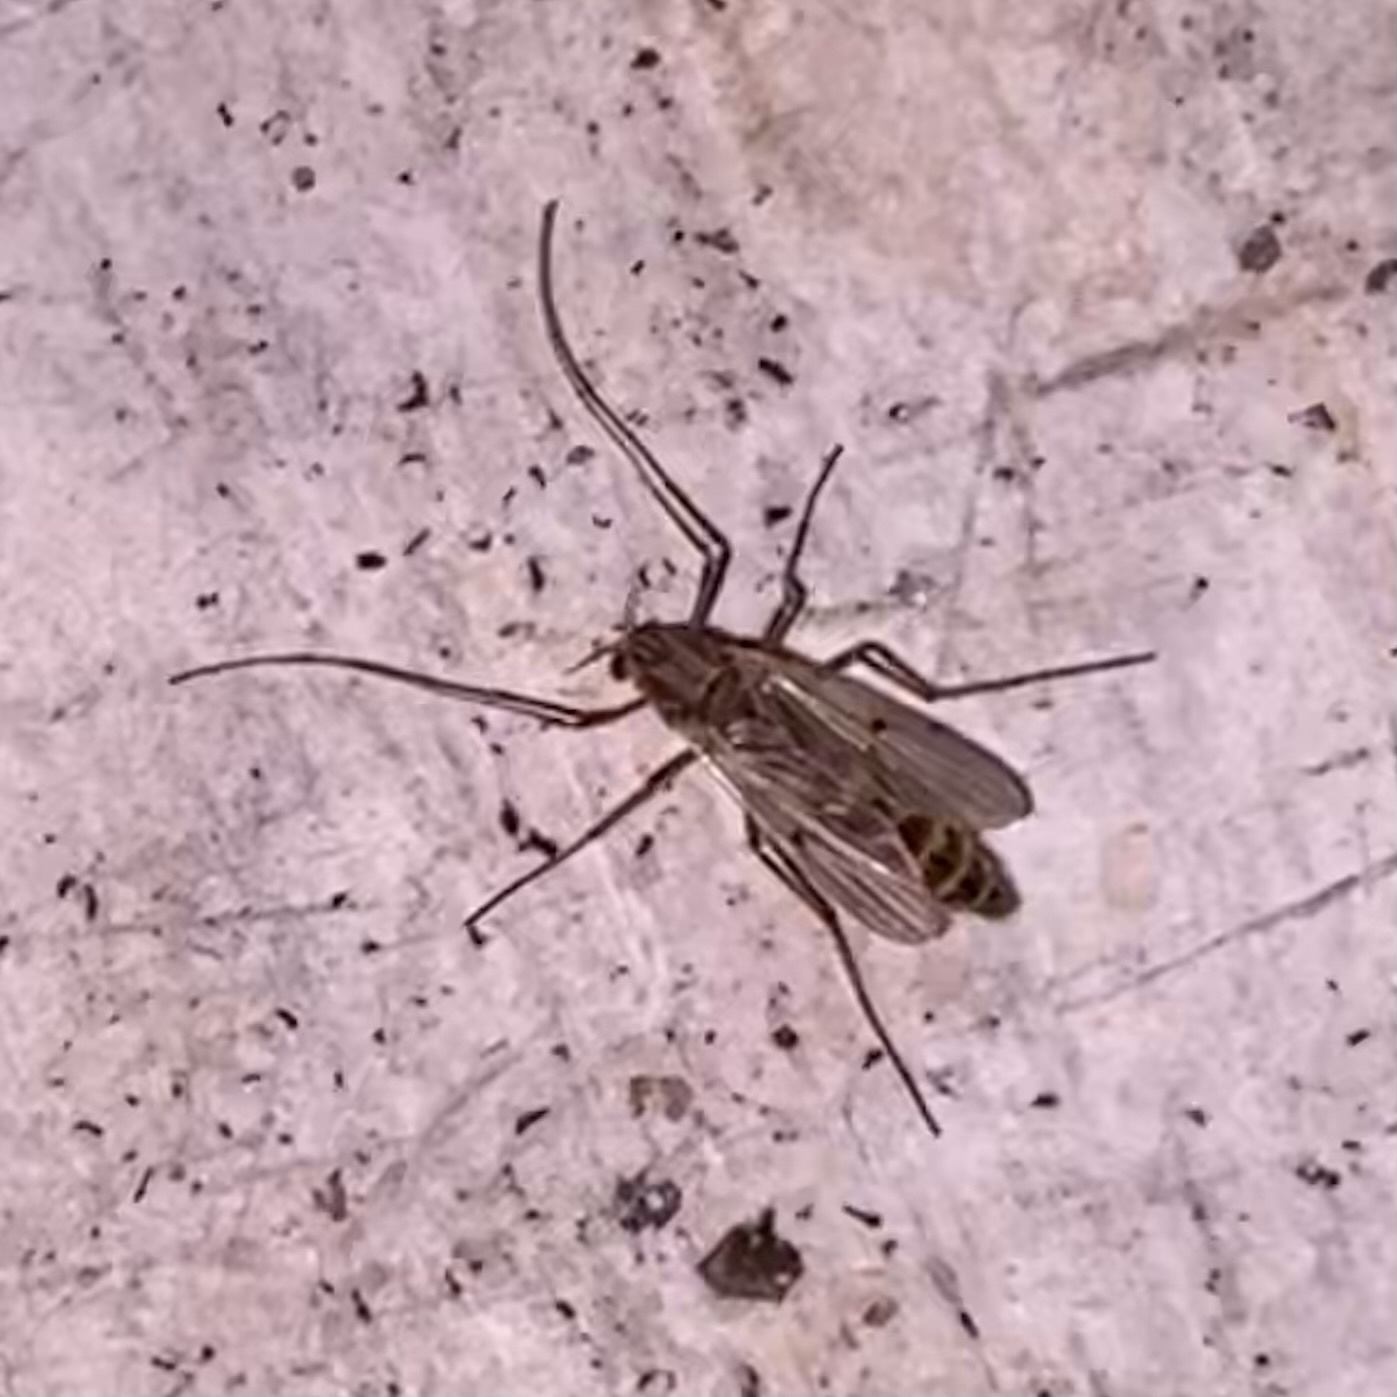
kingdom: Animalia
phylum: Arthropoda
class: Insecta
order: Diptera
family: Chironomidae
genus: Chironomus
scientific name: Chironomus
